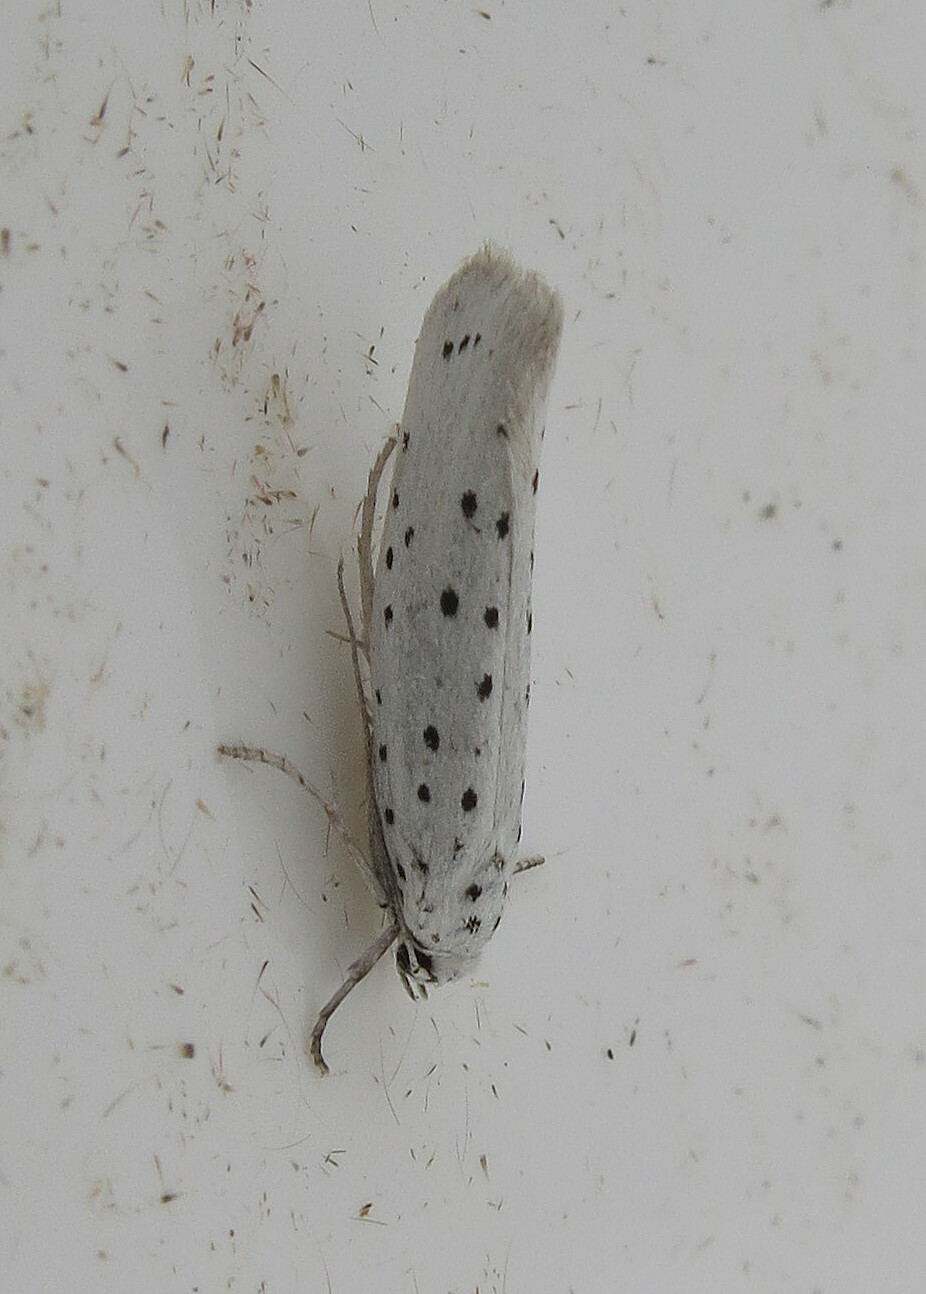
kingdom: Animalia
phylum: Arthropoda
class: Insecta
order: Lepidoptera
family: Yponomeutidae
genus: Yponomeuta
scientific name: Yponomeuta
